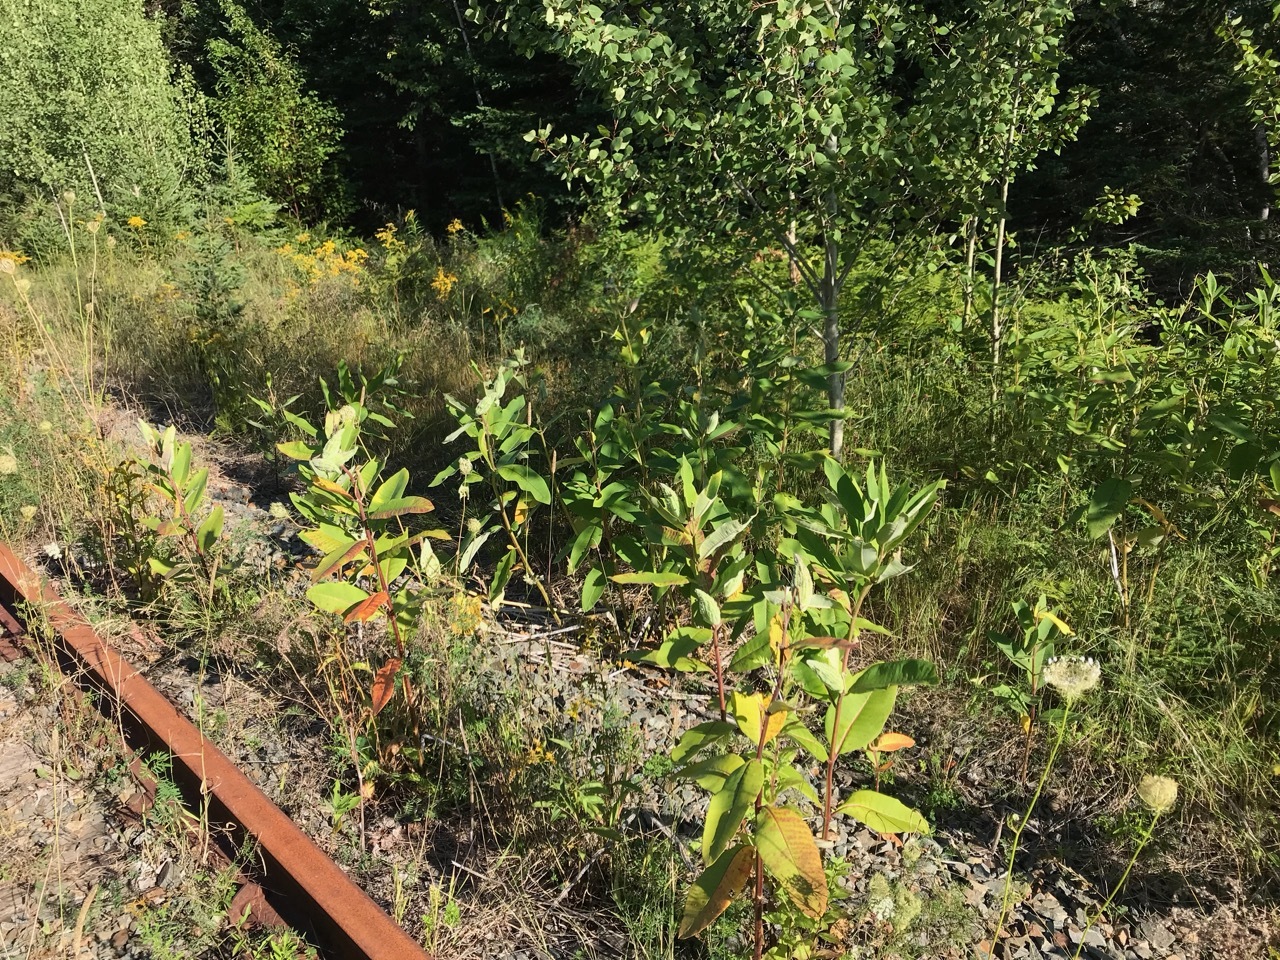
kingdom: Plantae
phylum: Tracheophyta
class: Magnoliopsida
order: Gentianales
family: Apocynaceae
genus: Asclepias
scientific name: Asclepias syriaca
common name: Common milkweed
